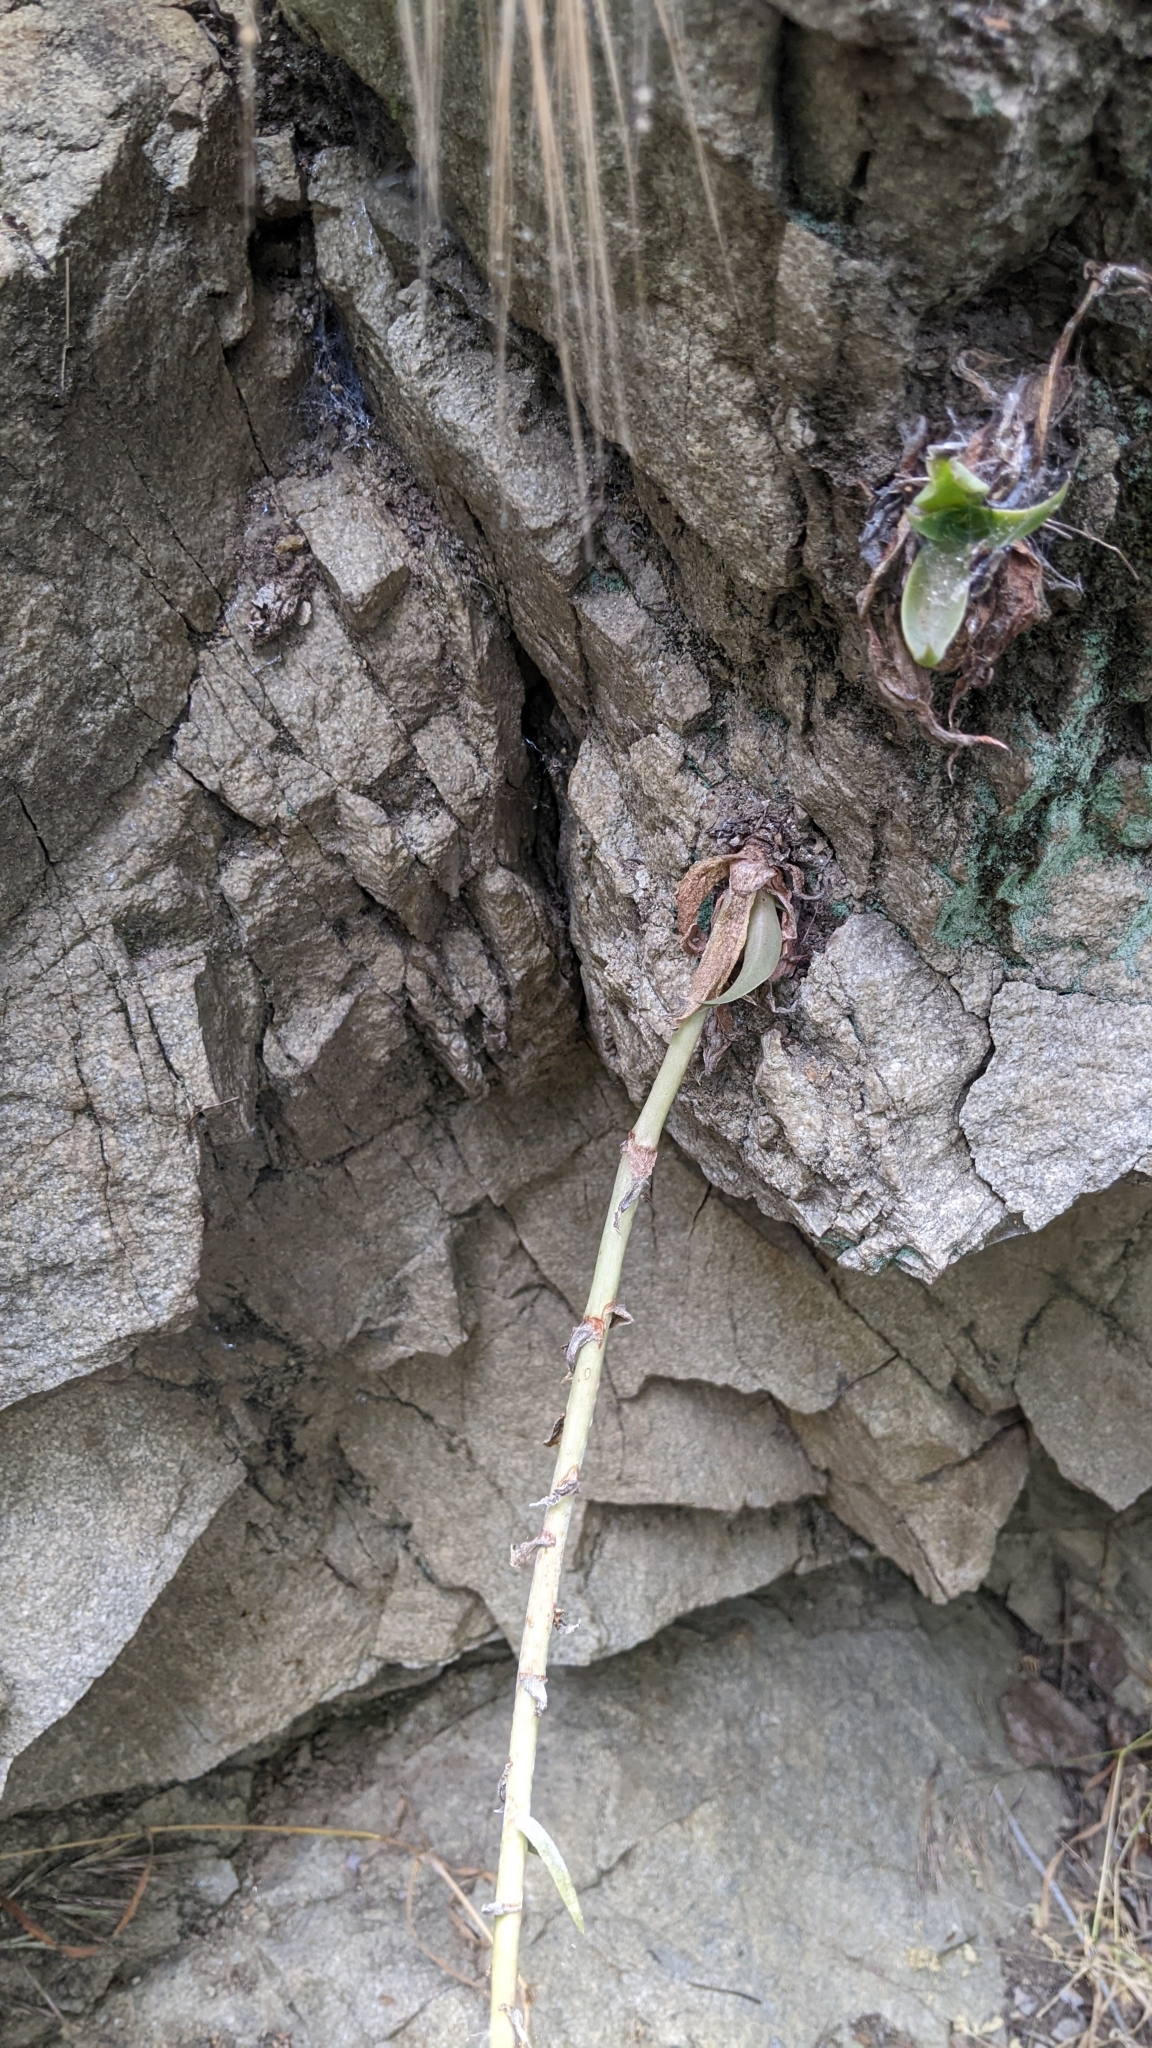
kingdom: Plantae
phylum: Tracheophyta
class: Magnoliopsida
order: Saxifragales
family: Crassulaceae
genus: Dudleya
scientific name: Dudleya lanceolata
